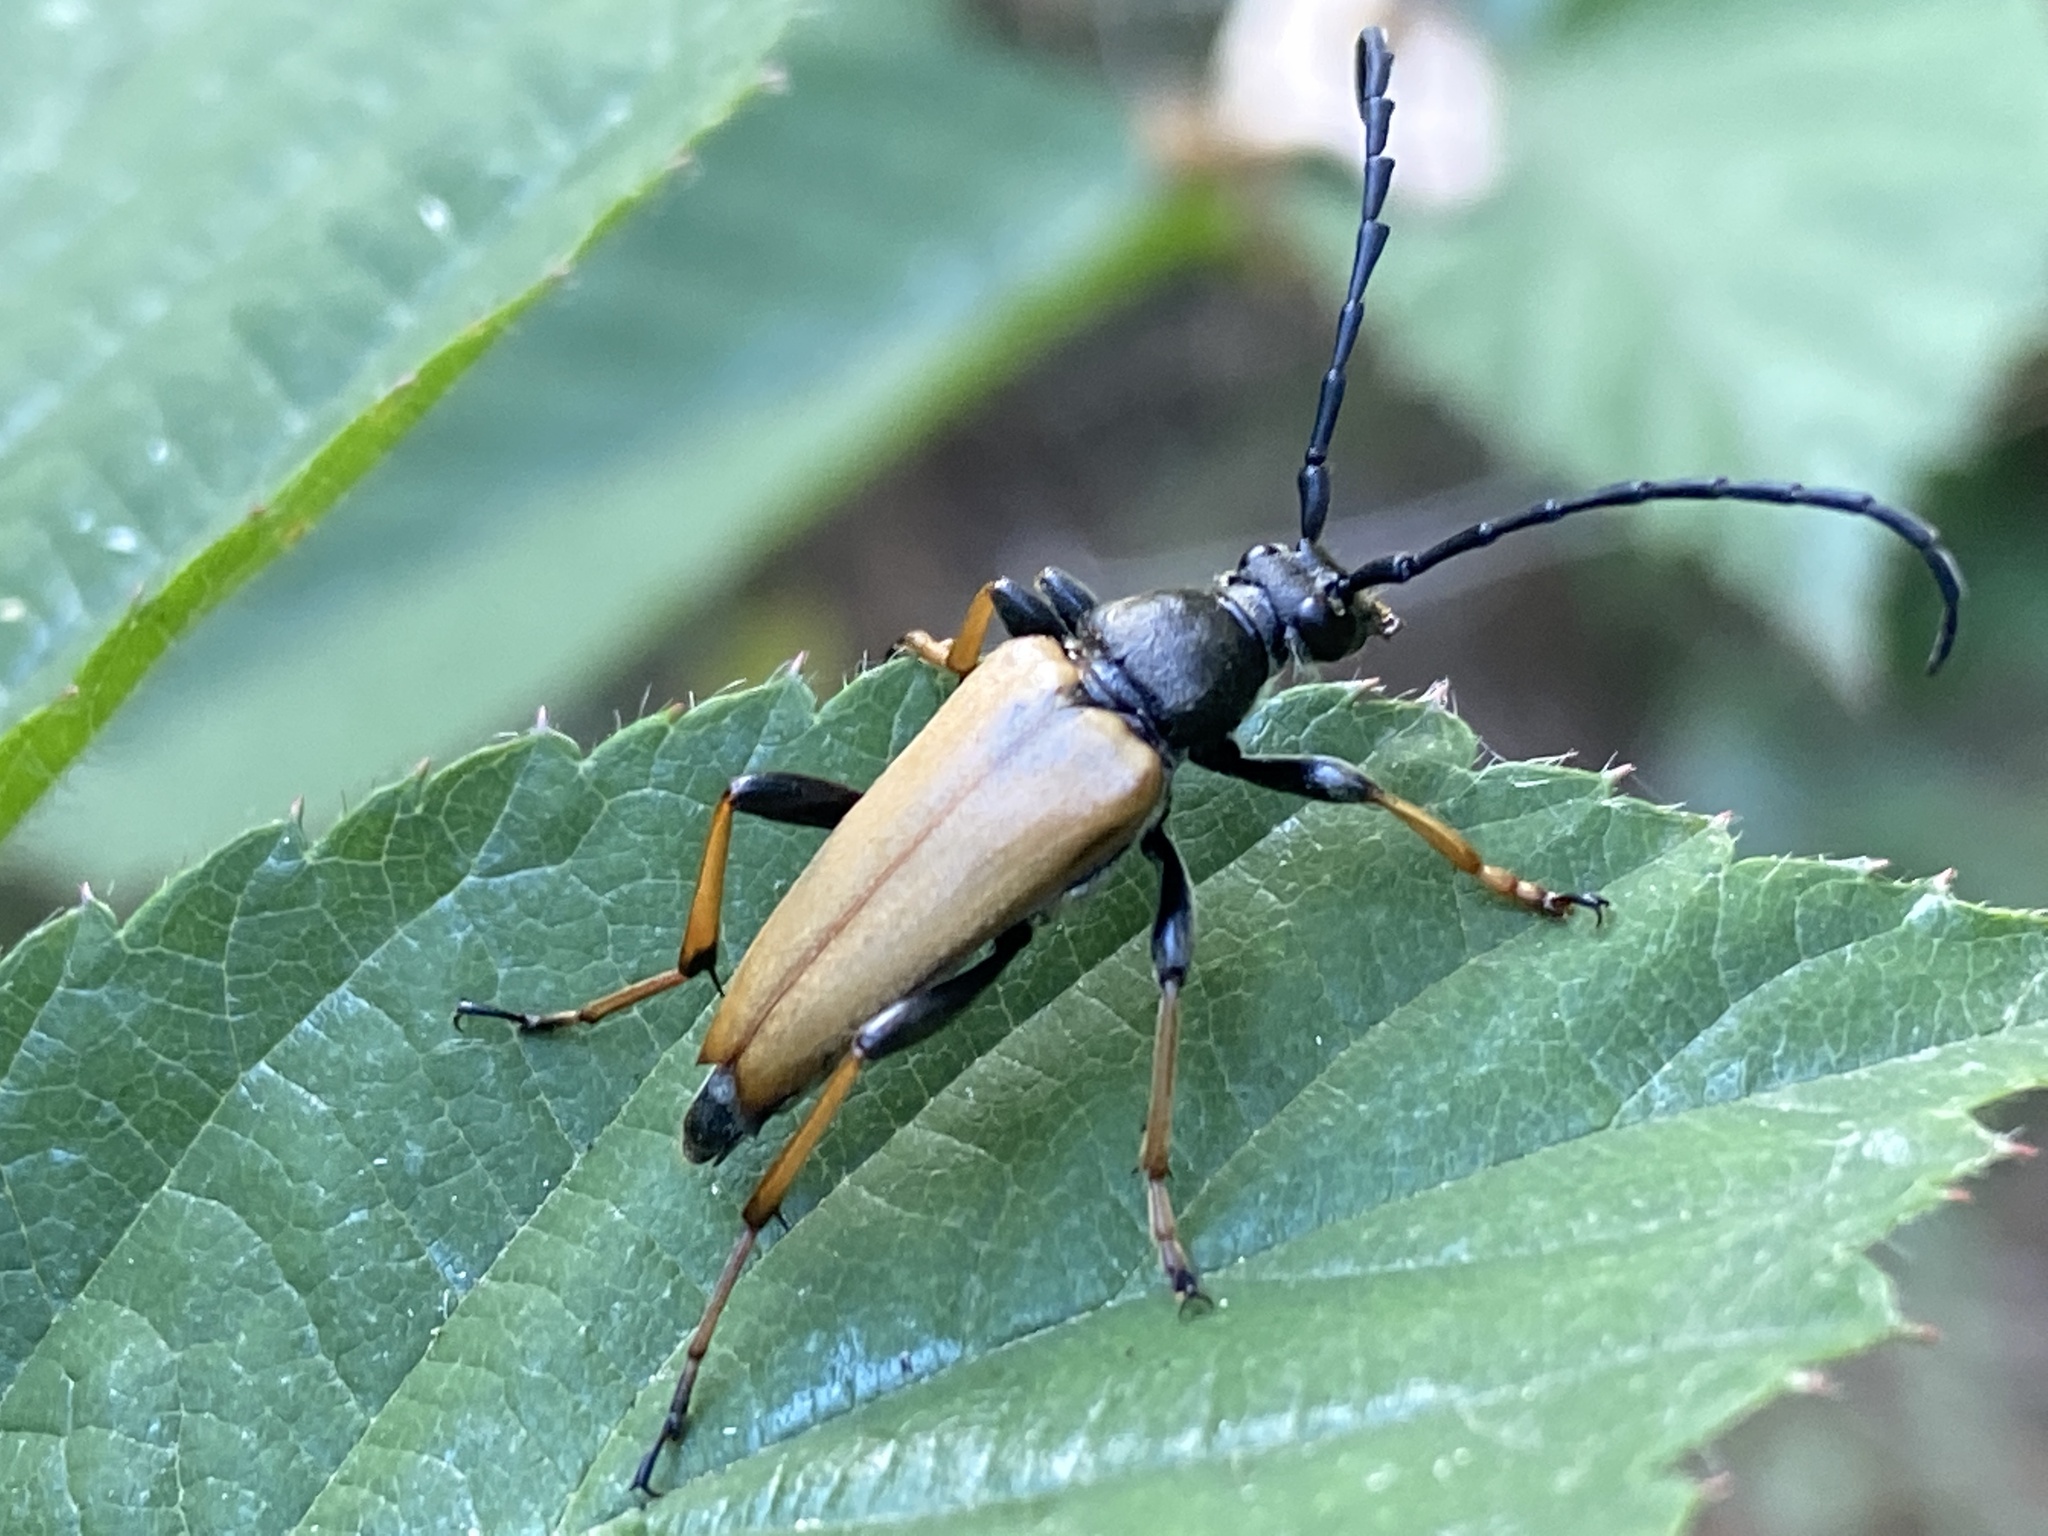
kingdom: Animalia
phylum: Arthropoda
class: Insecta
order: Coleoptera
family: Cerambycidae
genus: Stictoleptura
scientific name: Stictoleptura rubra
